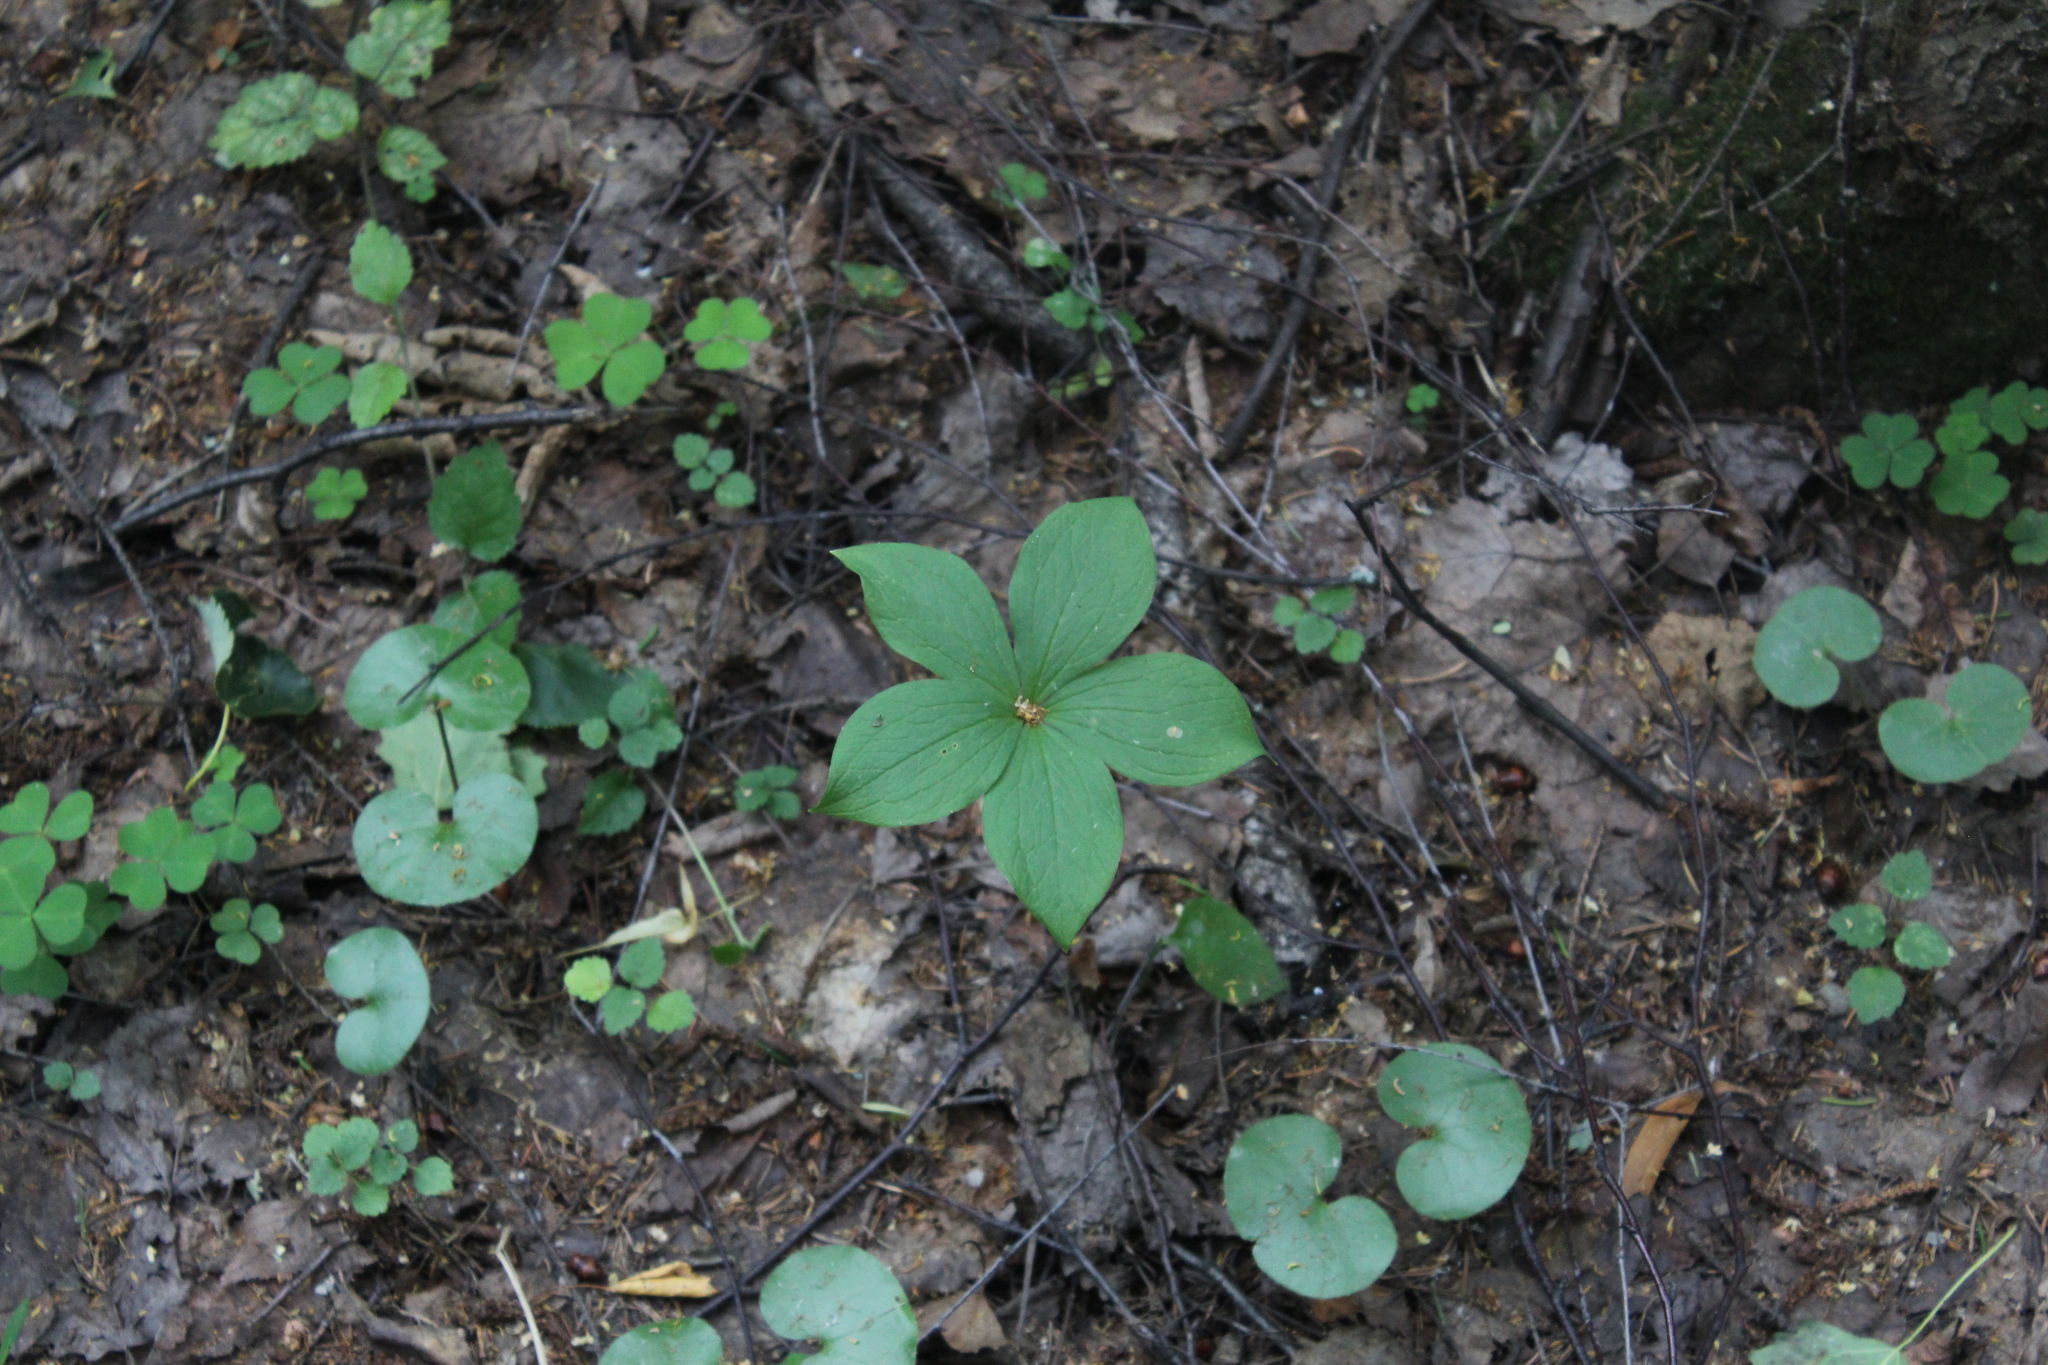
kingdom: Plantae
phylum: Tracheophyta
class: Liliopsida
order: Liliales
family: Melanthiaceae
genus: Paris
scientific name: Paris quadrifolia
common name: Herb-paris
